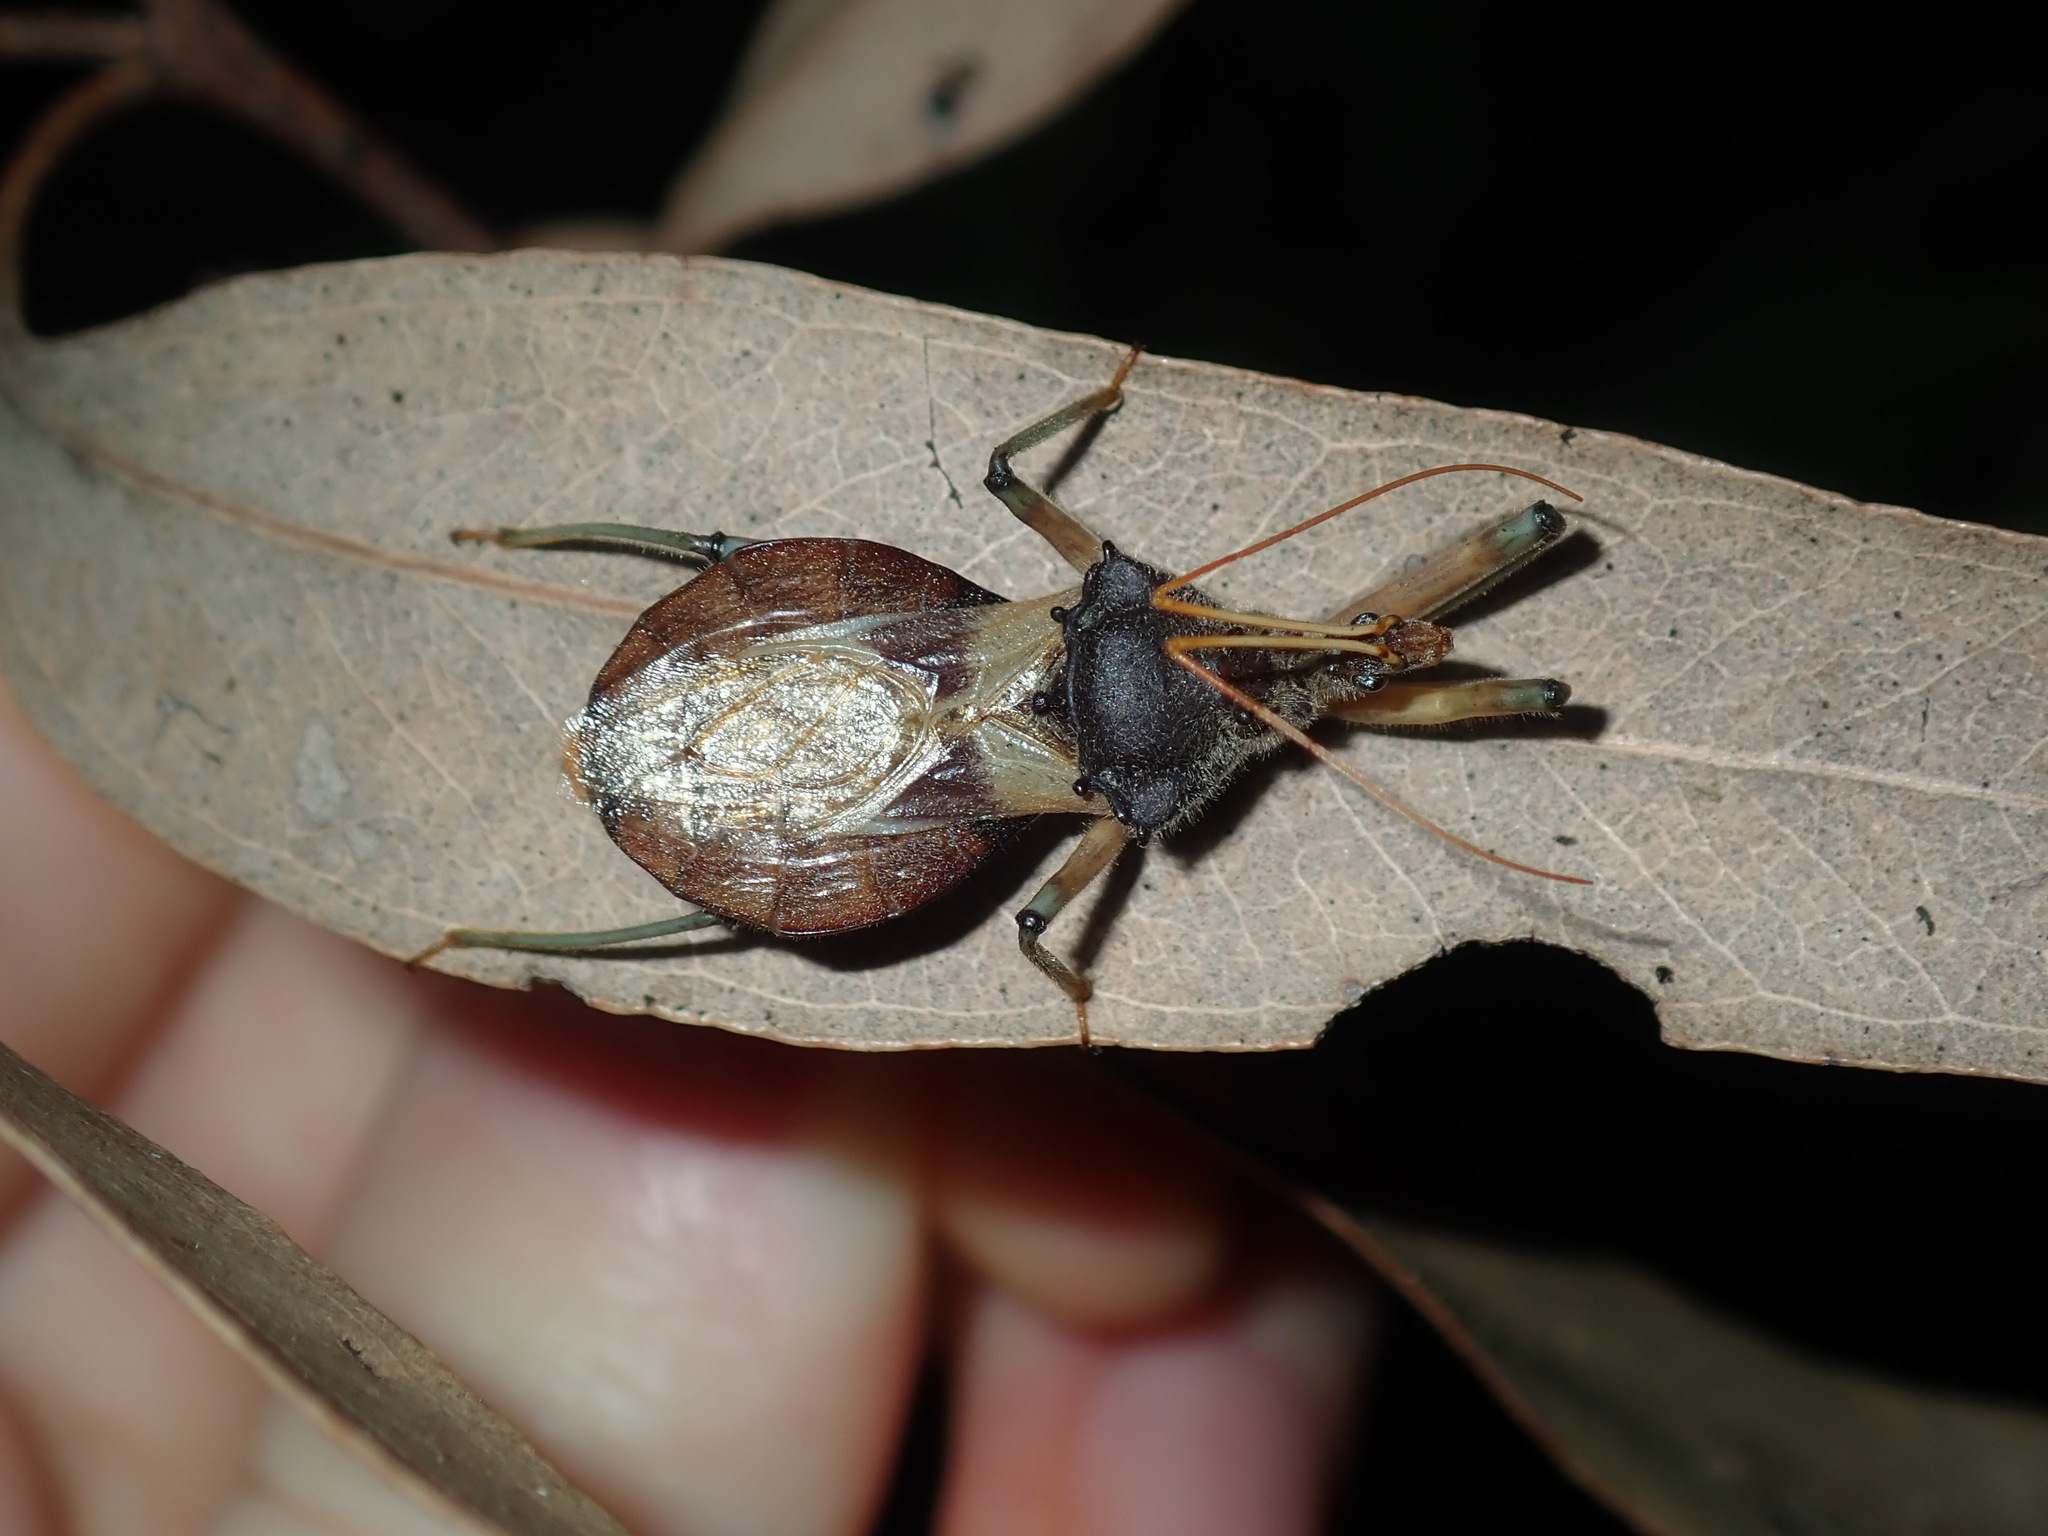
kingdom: Animalia
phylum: Arthropoda
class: Insecta
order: Hemiptera
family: Reduviidae
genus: Pristhesancus
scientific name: Pristhesancus plagipennis
